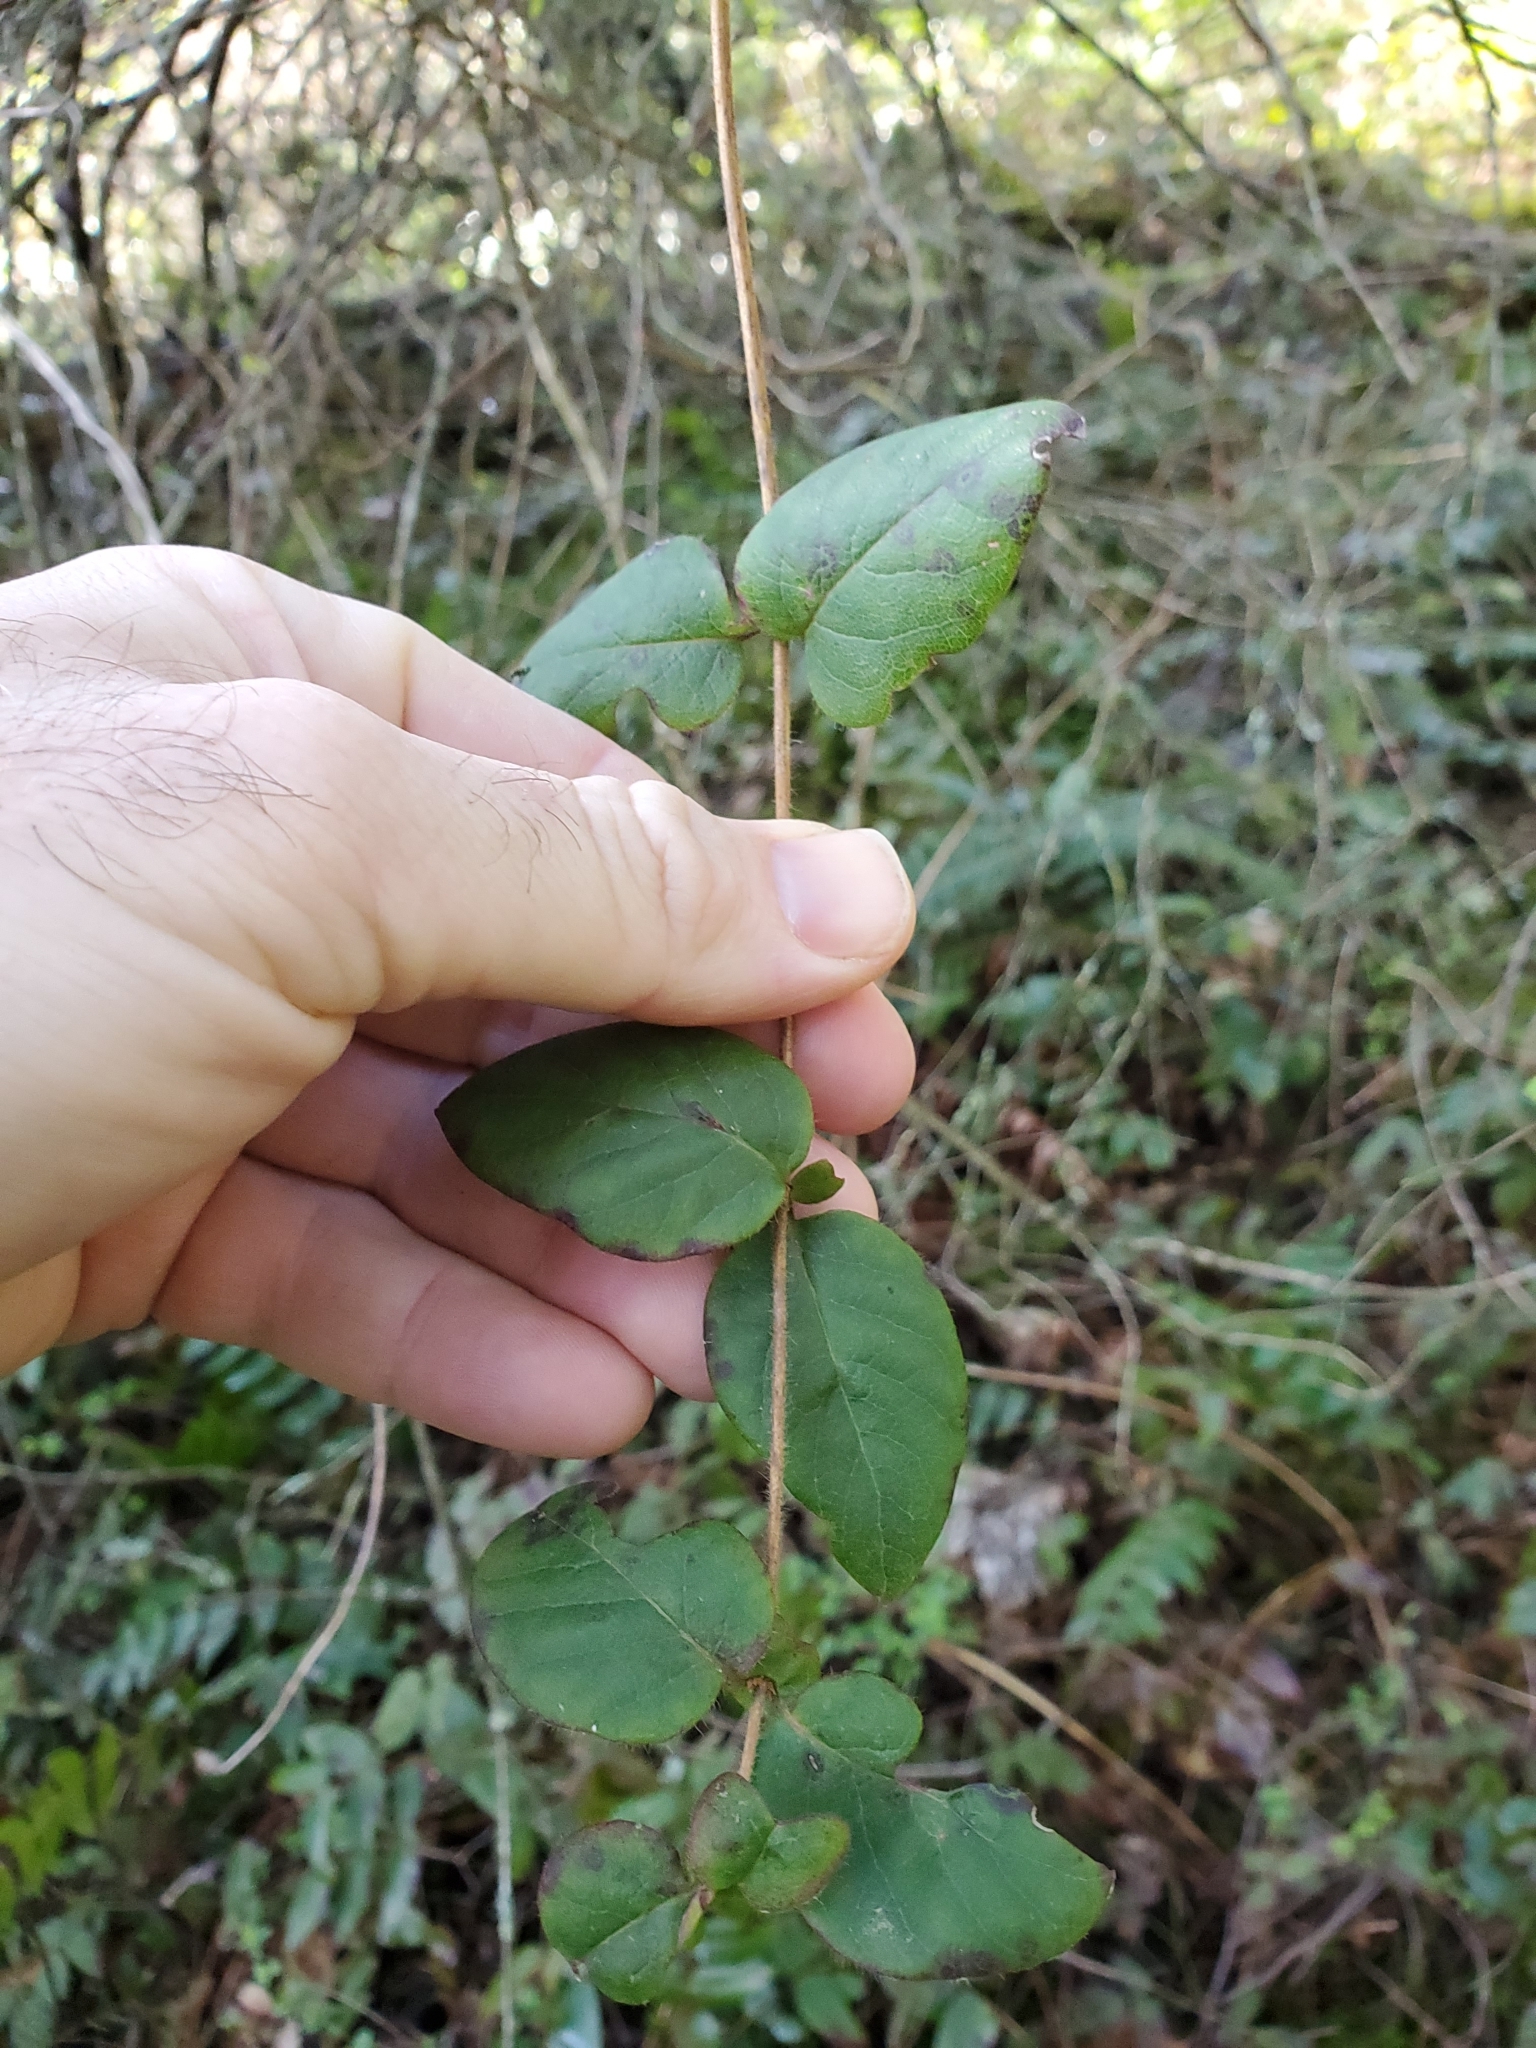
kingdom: Plantae
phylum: Tracheophyta
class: Magnoliopsida
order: Dipsacales
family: Caprifoliaceae
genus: Lonicera
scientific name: Lonicera hispidula
